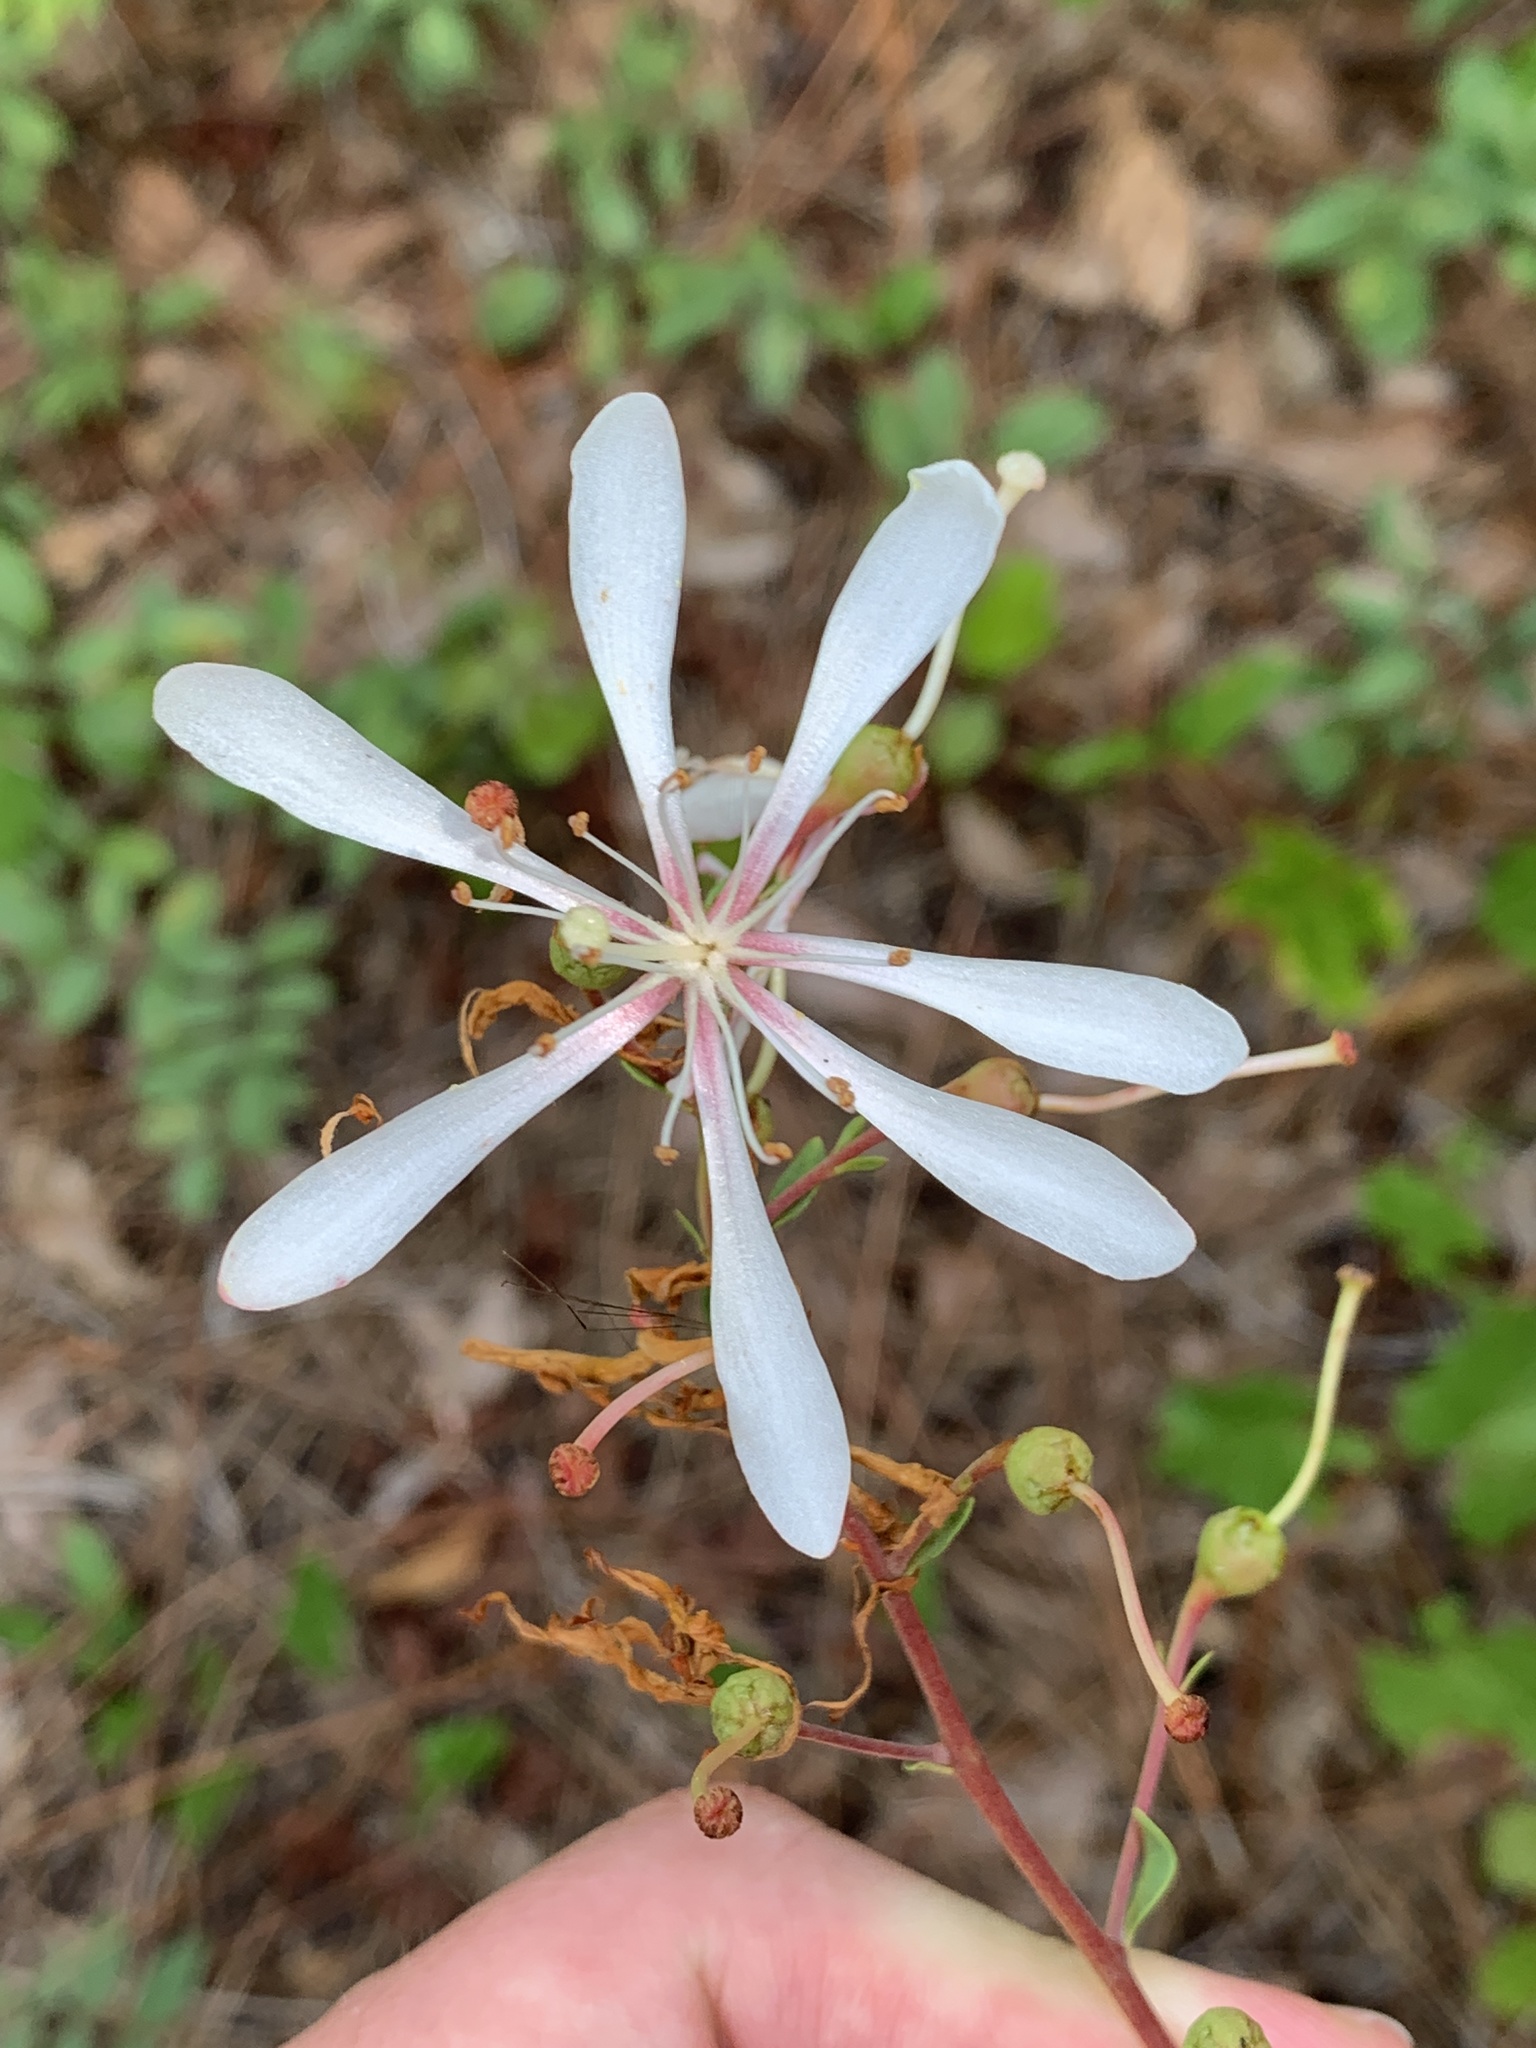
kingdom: Plantae
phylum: Tracheophyta
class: Magnoliopsida
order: Ericales
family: Ericaceae
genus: Bejaria
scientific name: Bejaria racemosa
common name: Tarflower
